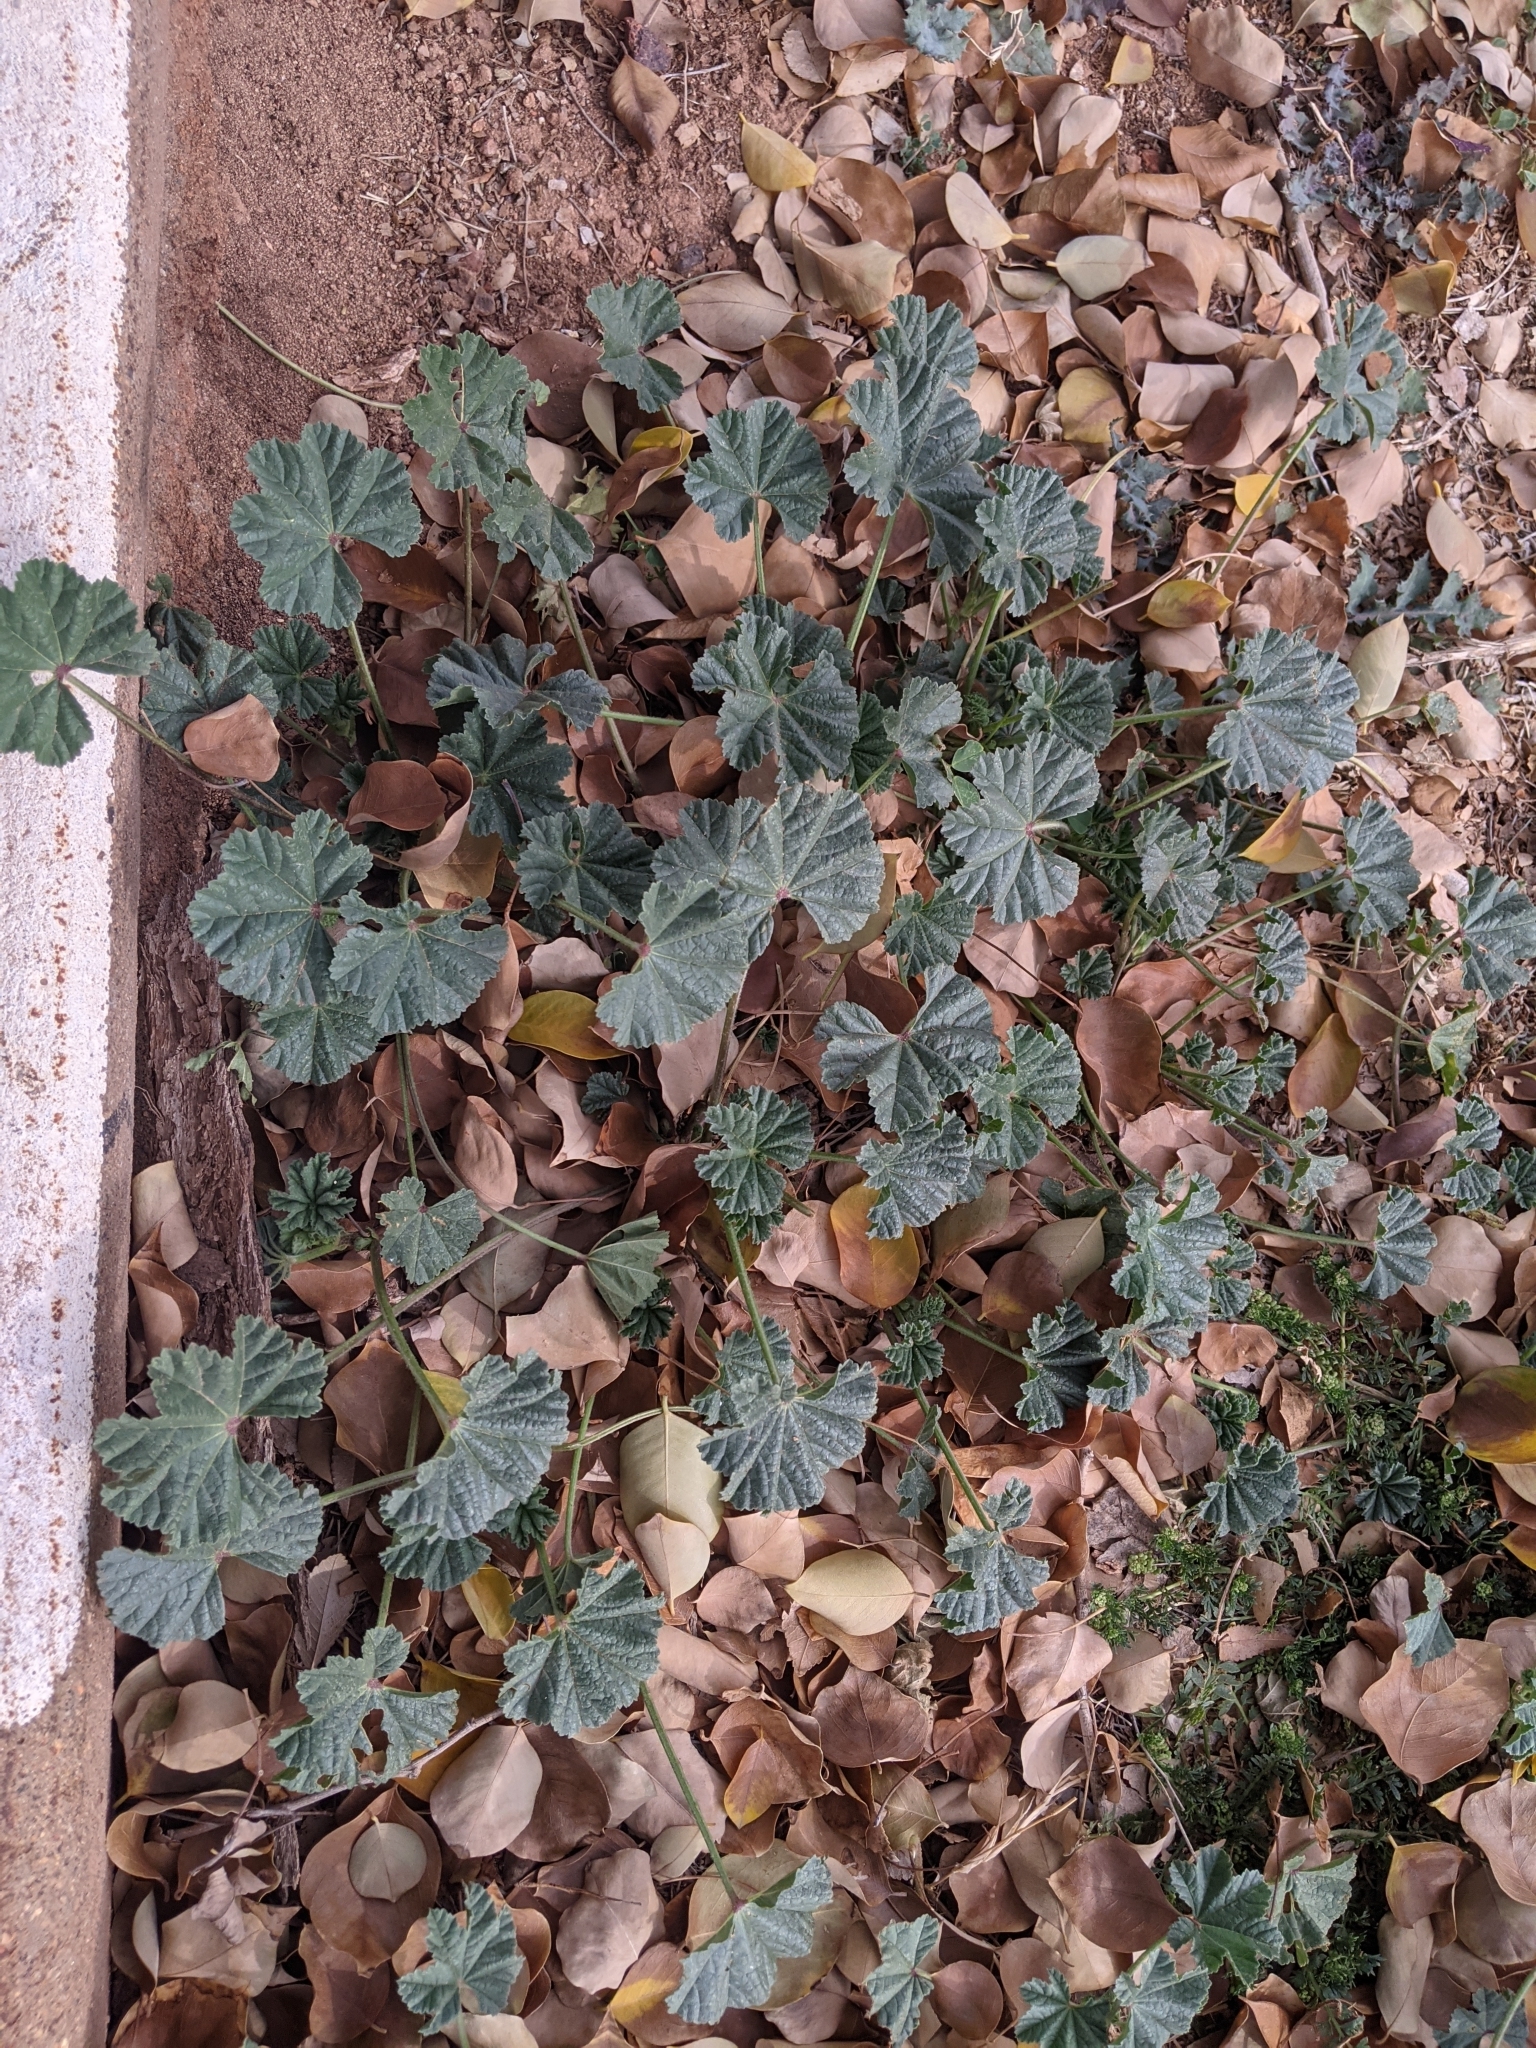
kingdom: Plantae
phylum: Tracheophyta
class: Magnoliopsida
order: Malvales
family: Malvaceae
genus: Malva
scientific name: Malva parviflora
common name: Least mallow
